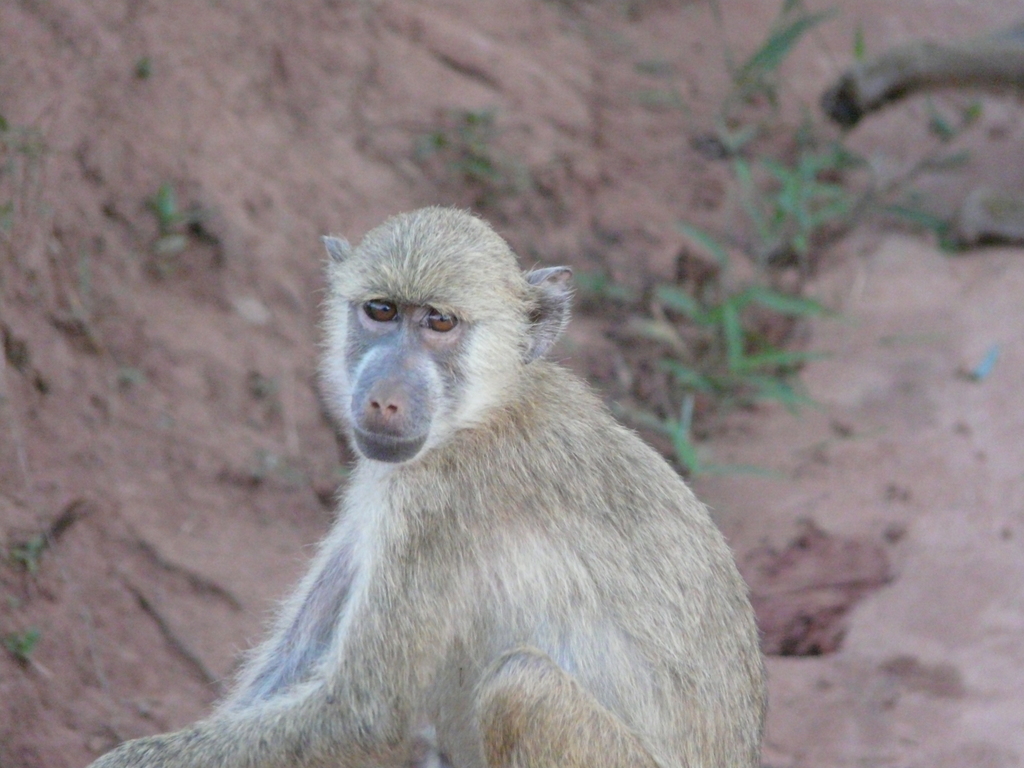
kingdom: Animalia
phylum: Chordata
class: Mammalia
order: Primates
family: Cercopithecidae
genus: Papio
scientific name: Papio cynocephalus
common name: Yellow baboon
